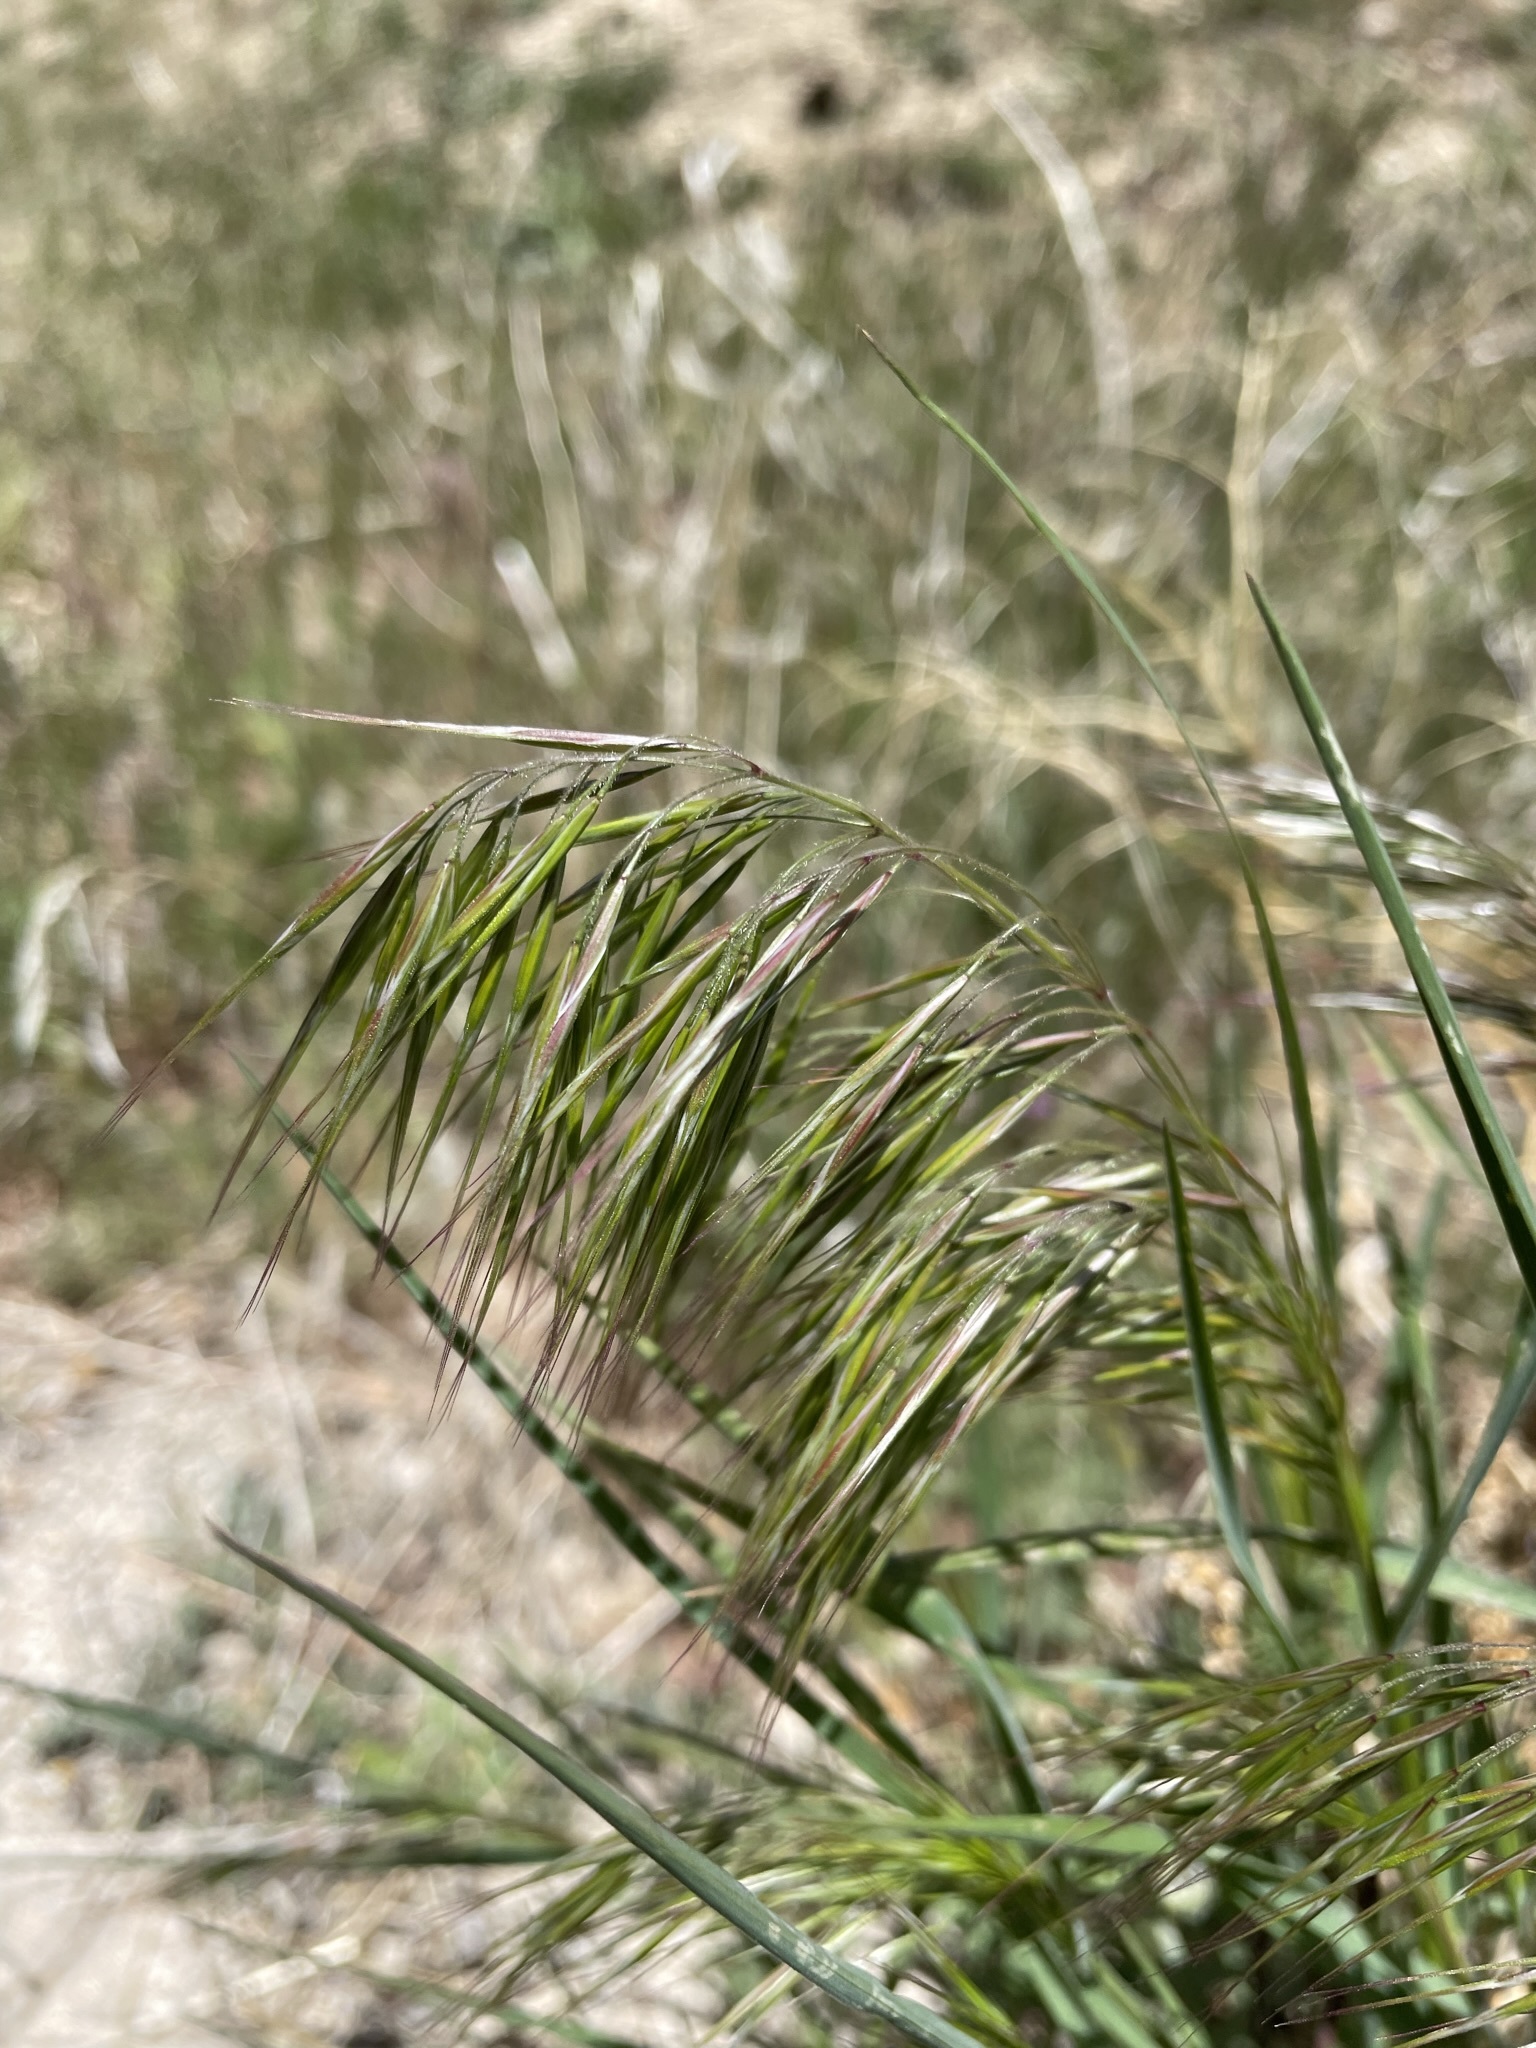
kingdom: Plantae
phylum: Tracheophyta
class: Liliopsida
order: Poales
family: Poaceae
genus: Bromus
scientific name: Bromus tectorum
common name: Cheatgrass
